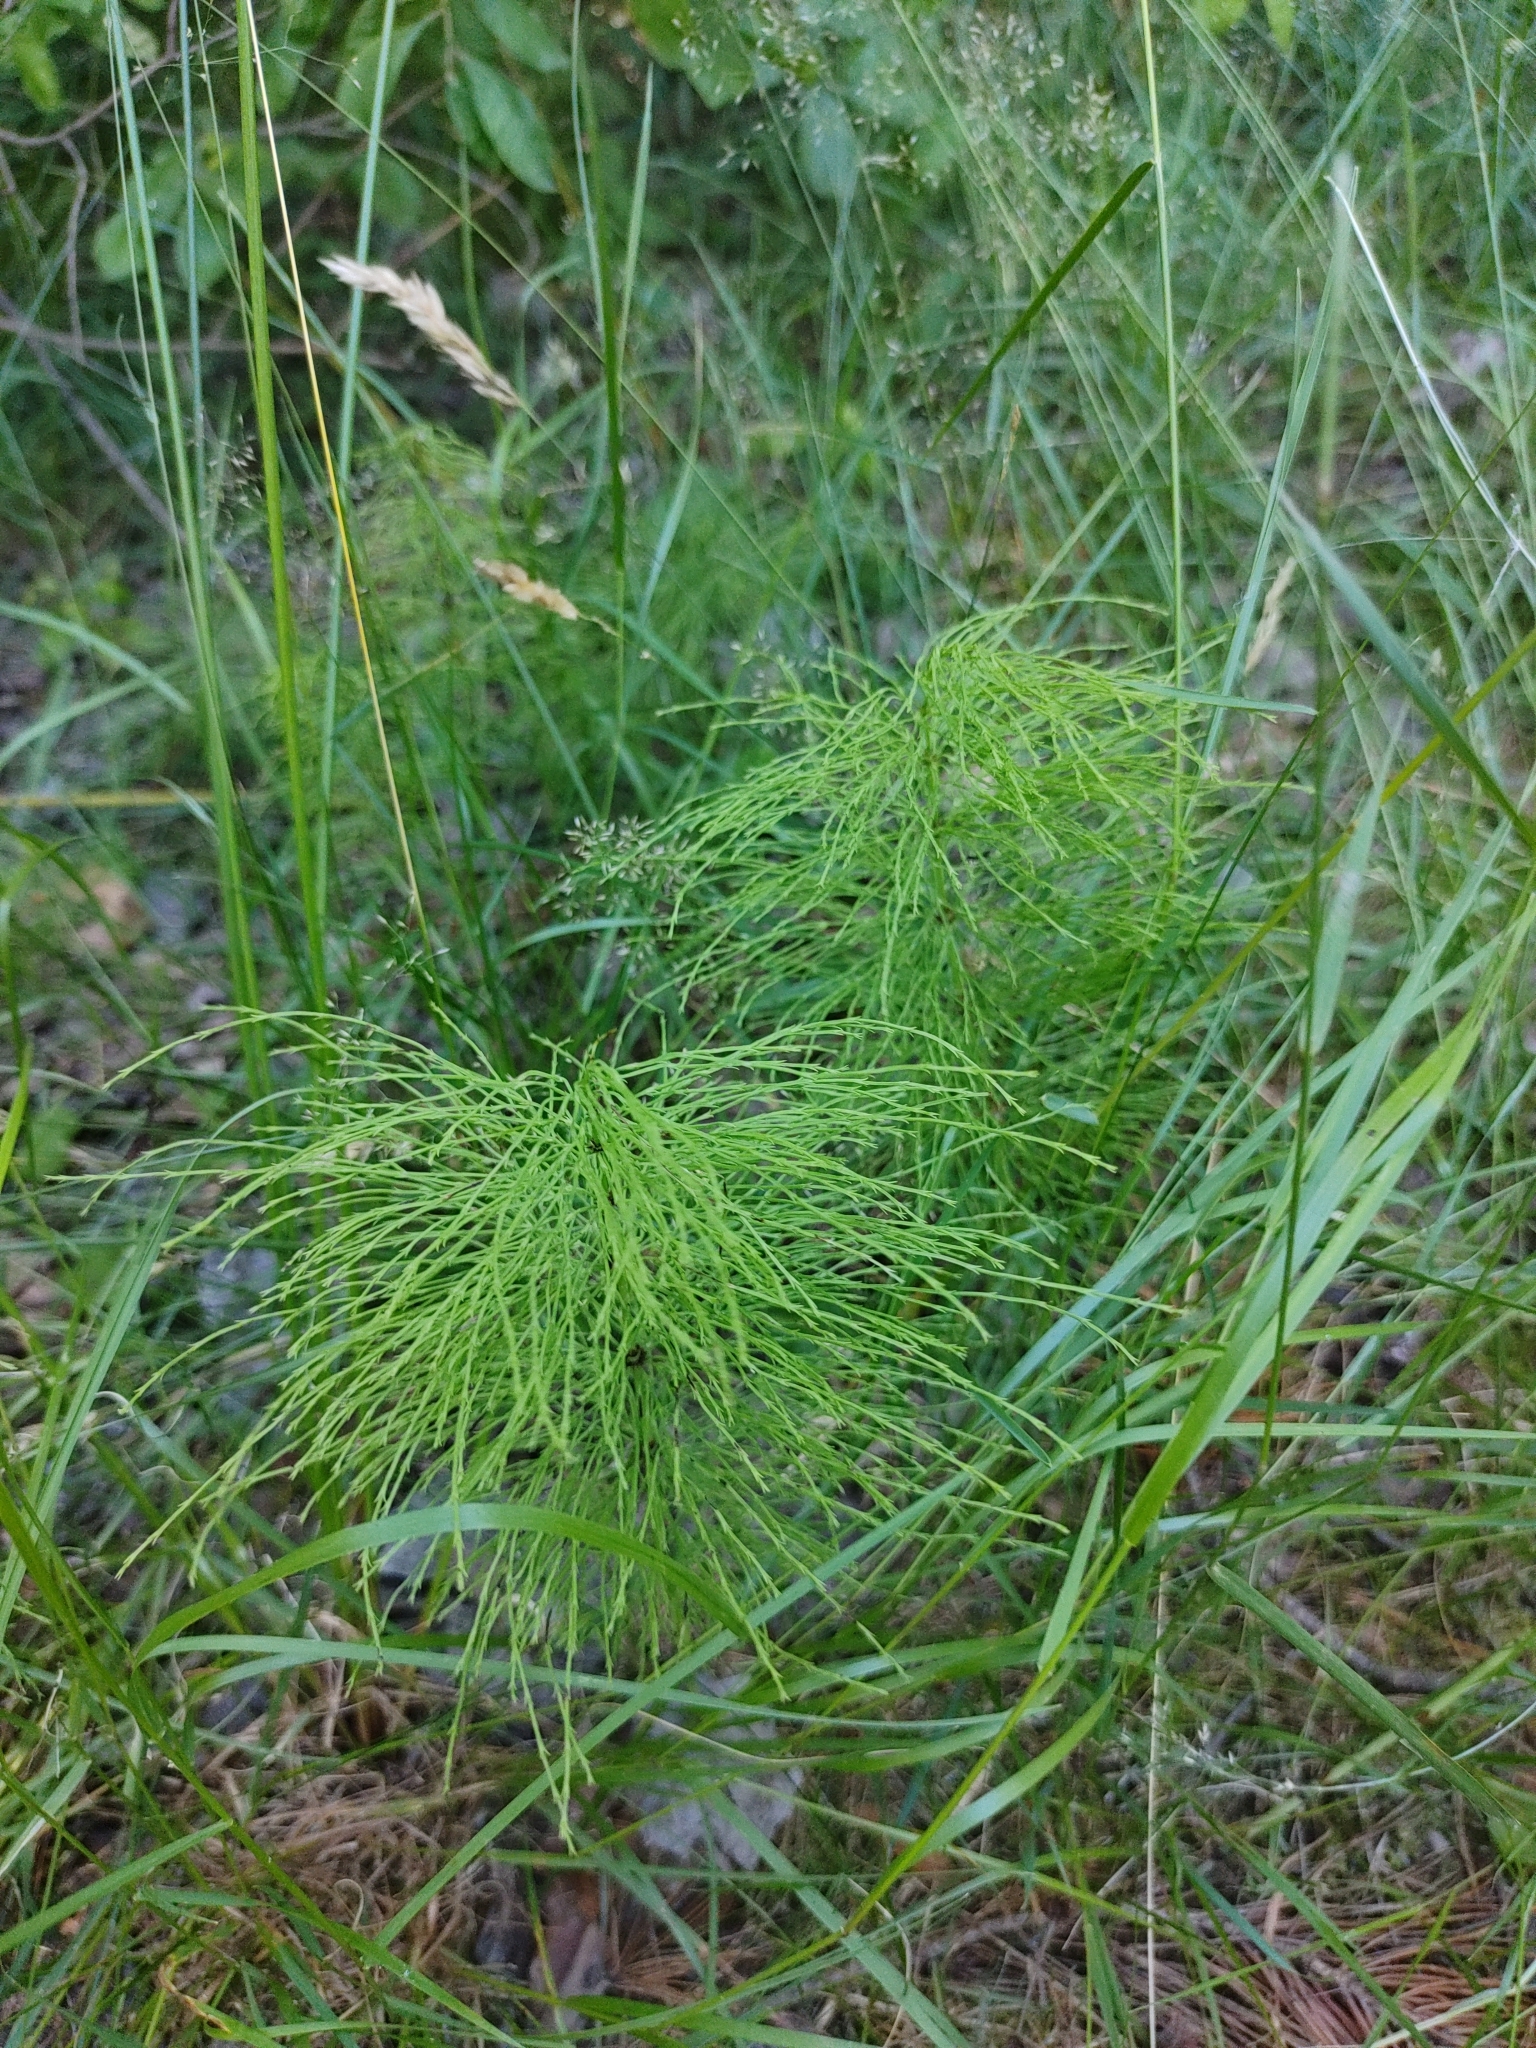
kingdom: Plantae
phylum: Tracheophyta
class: Polypodiopsida
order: Equisetales
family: Equisetaceae
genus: Equisetum
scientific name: Equisetum sylvaticum
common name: Wood horsetail
